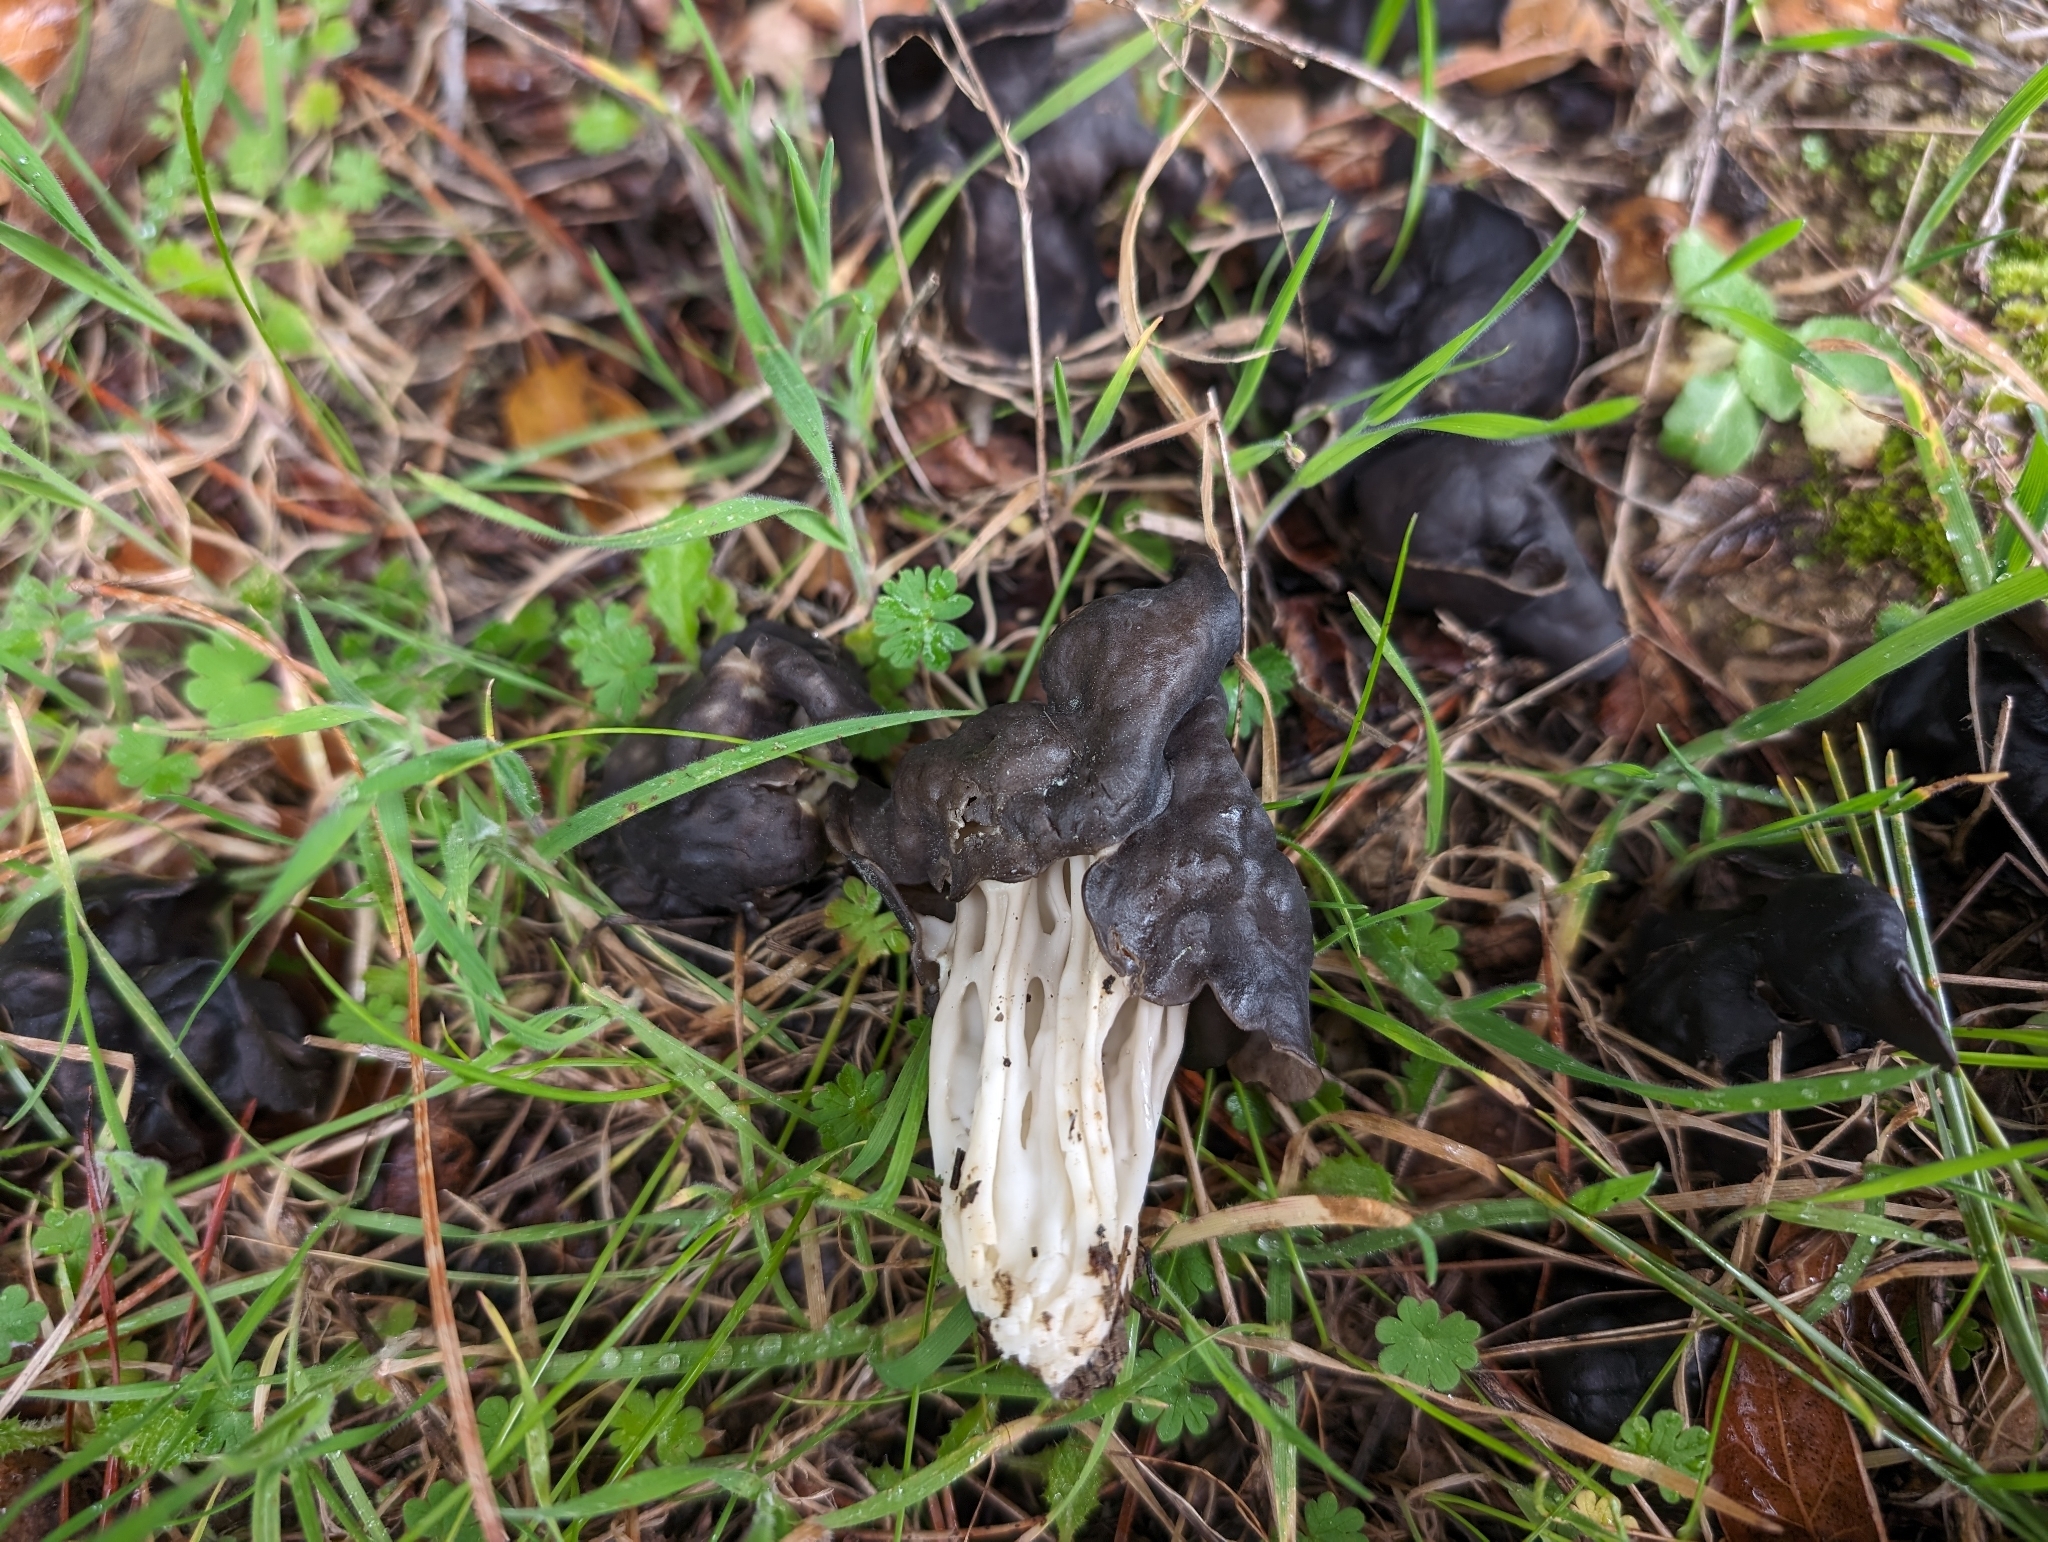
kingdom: Fungi
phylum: Ascomycota
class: Pezizomycetes
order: Pezizales
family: Helvellaceae
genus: Helvella
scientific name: Helvella dryophila
